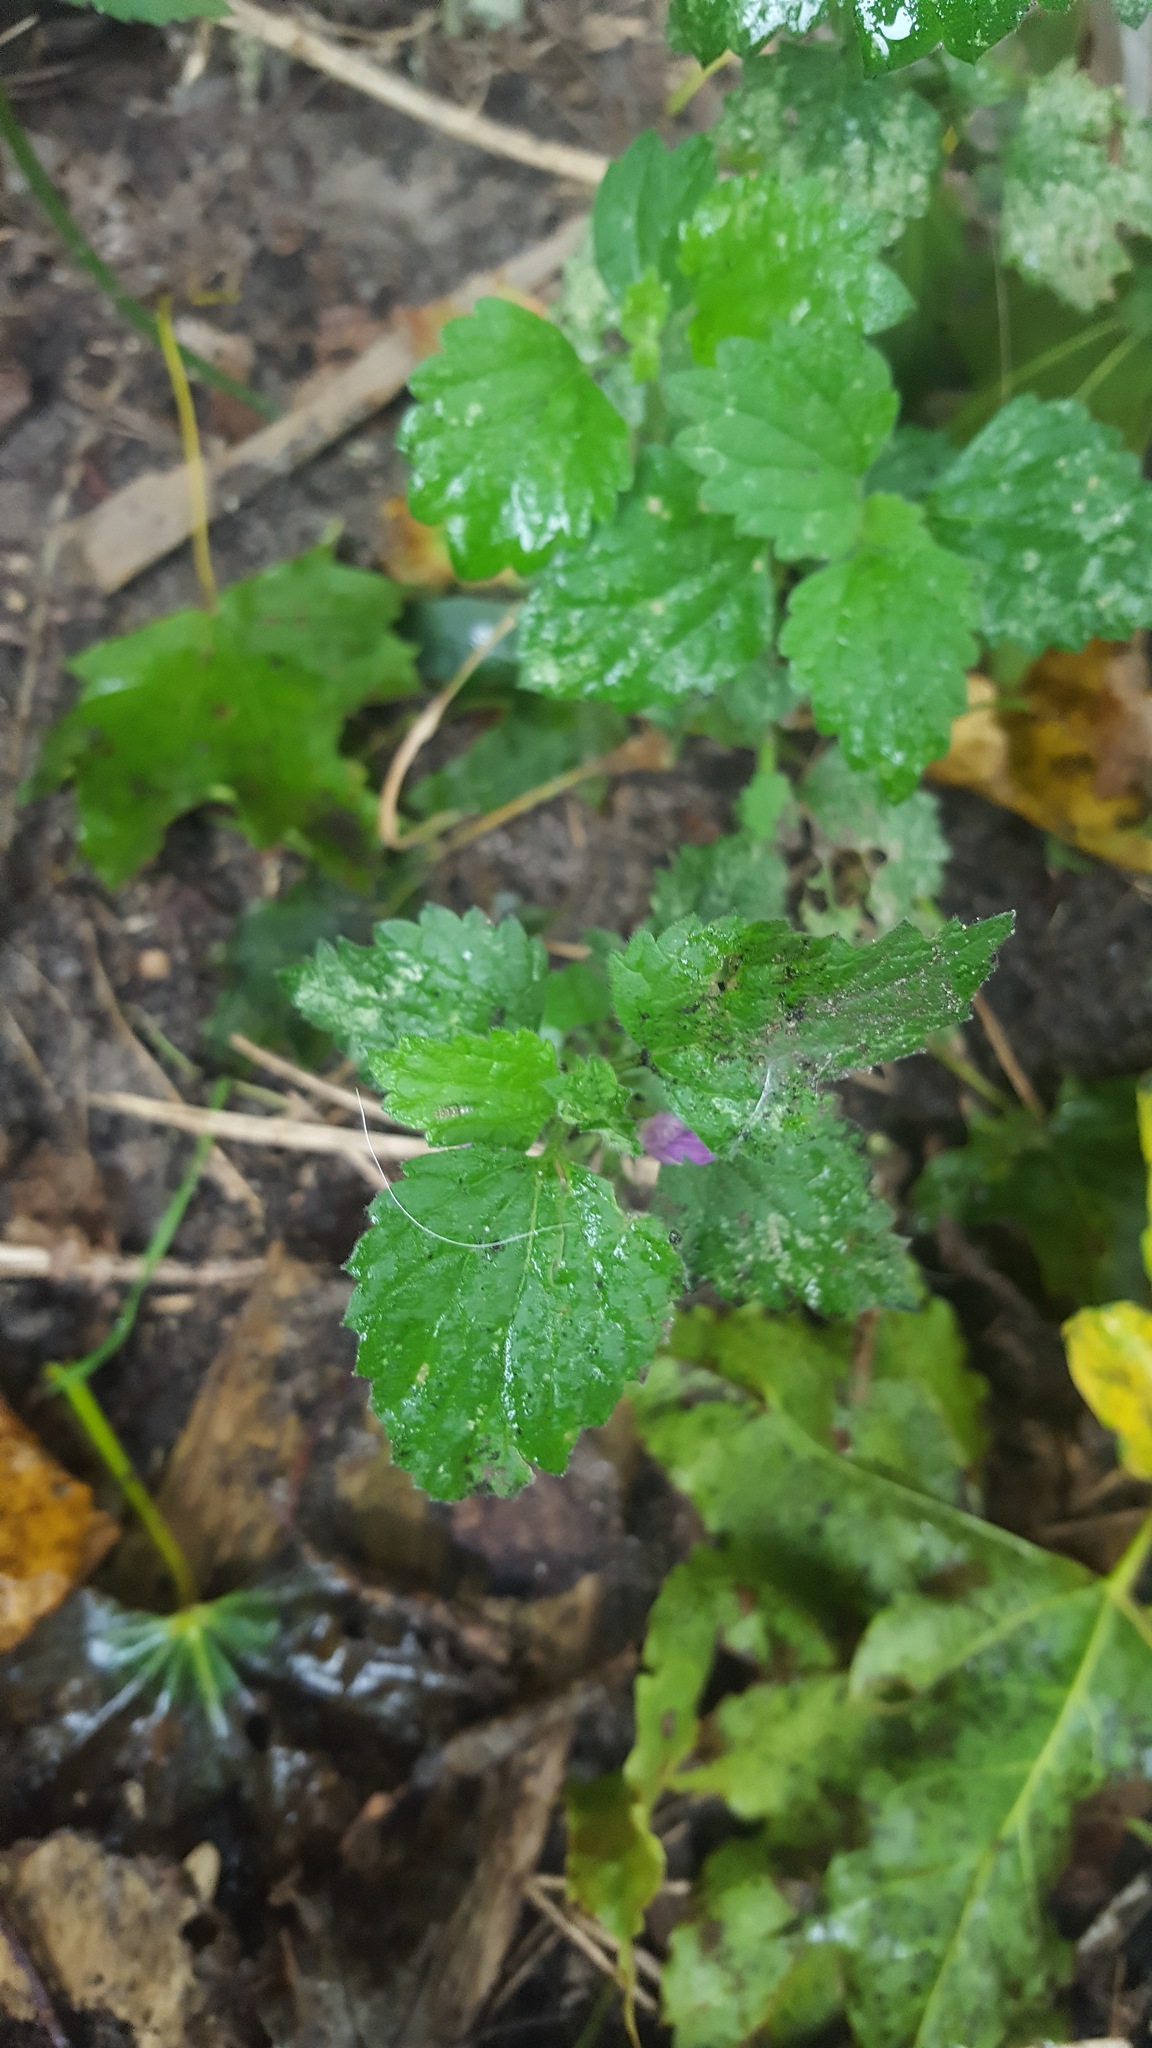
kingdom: Plantae
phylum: Tracheophyta
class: Magnoliopsida
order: Lamiales
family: Lamiaceae
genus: Lamium
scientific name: Lamium purpureum
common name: Red dead-nettle
